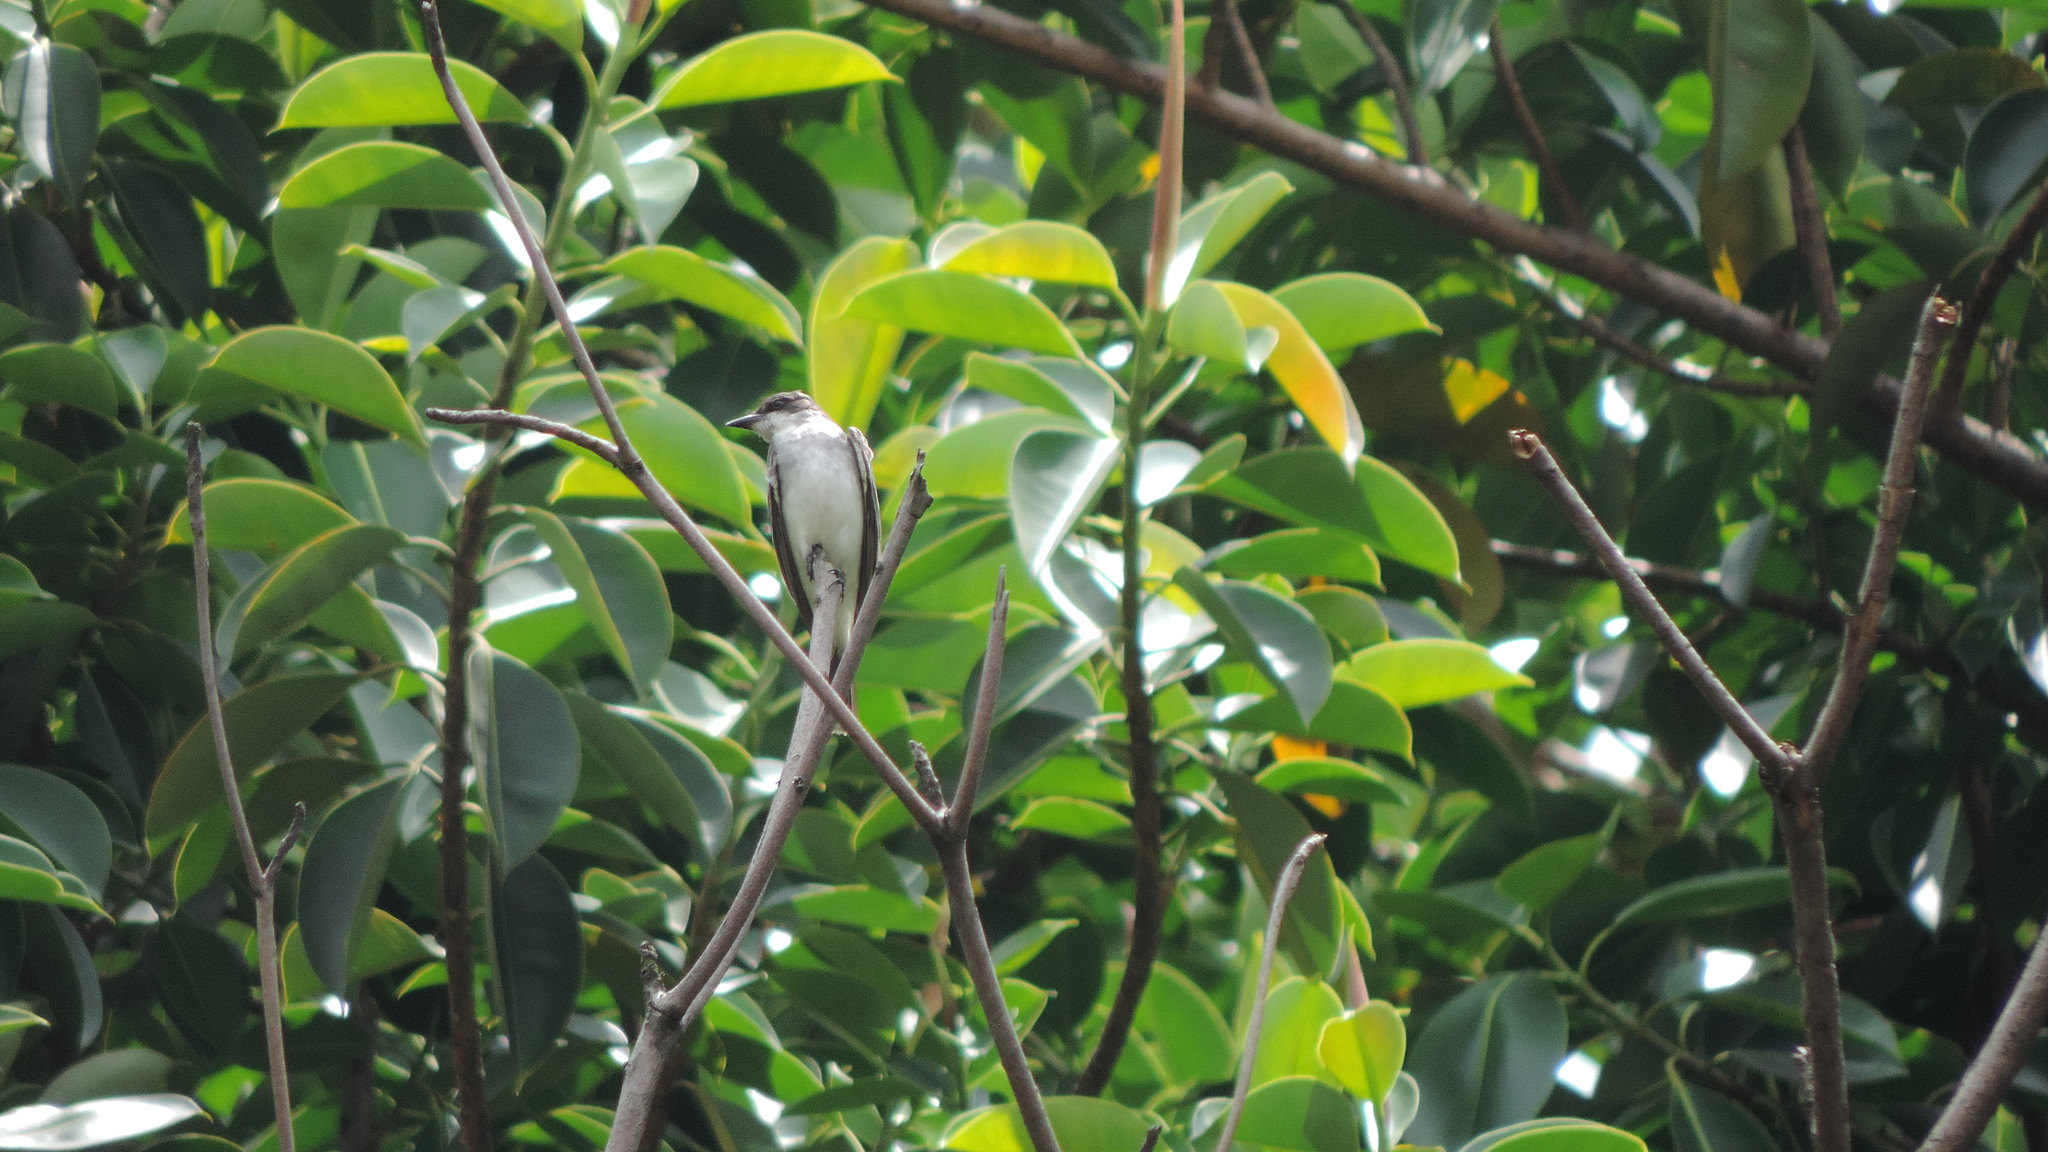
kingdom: Animalia
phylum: Chordata
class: Aves
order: Passeriformes
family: Tyrannidae
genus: Tyrannus
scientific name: Tyrannus tyrannus
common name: Eastern kingbird
